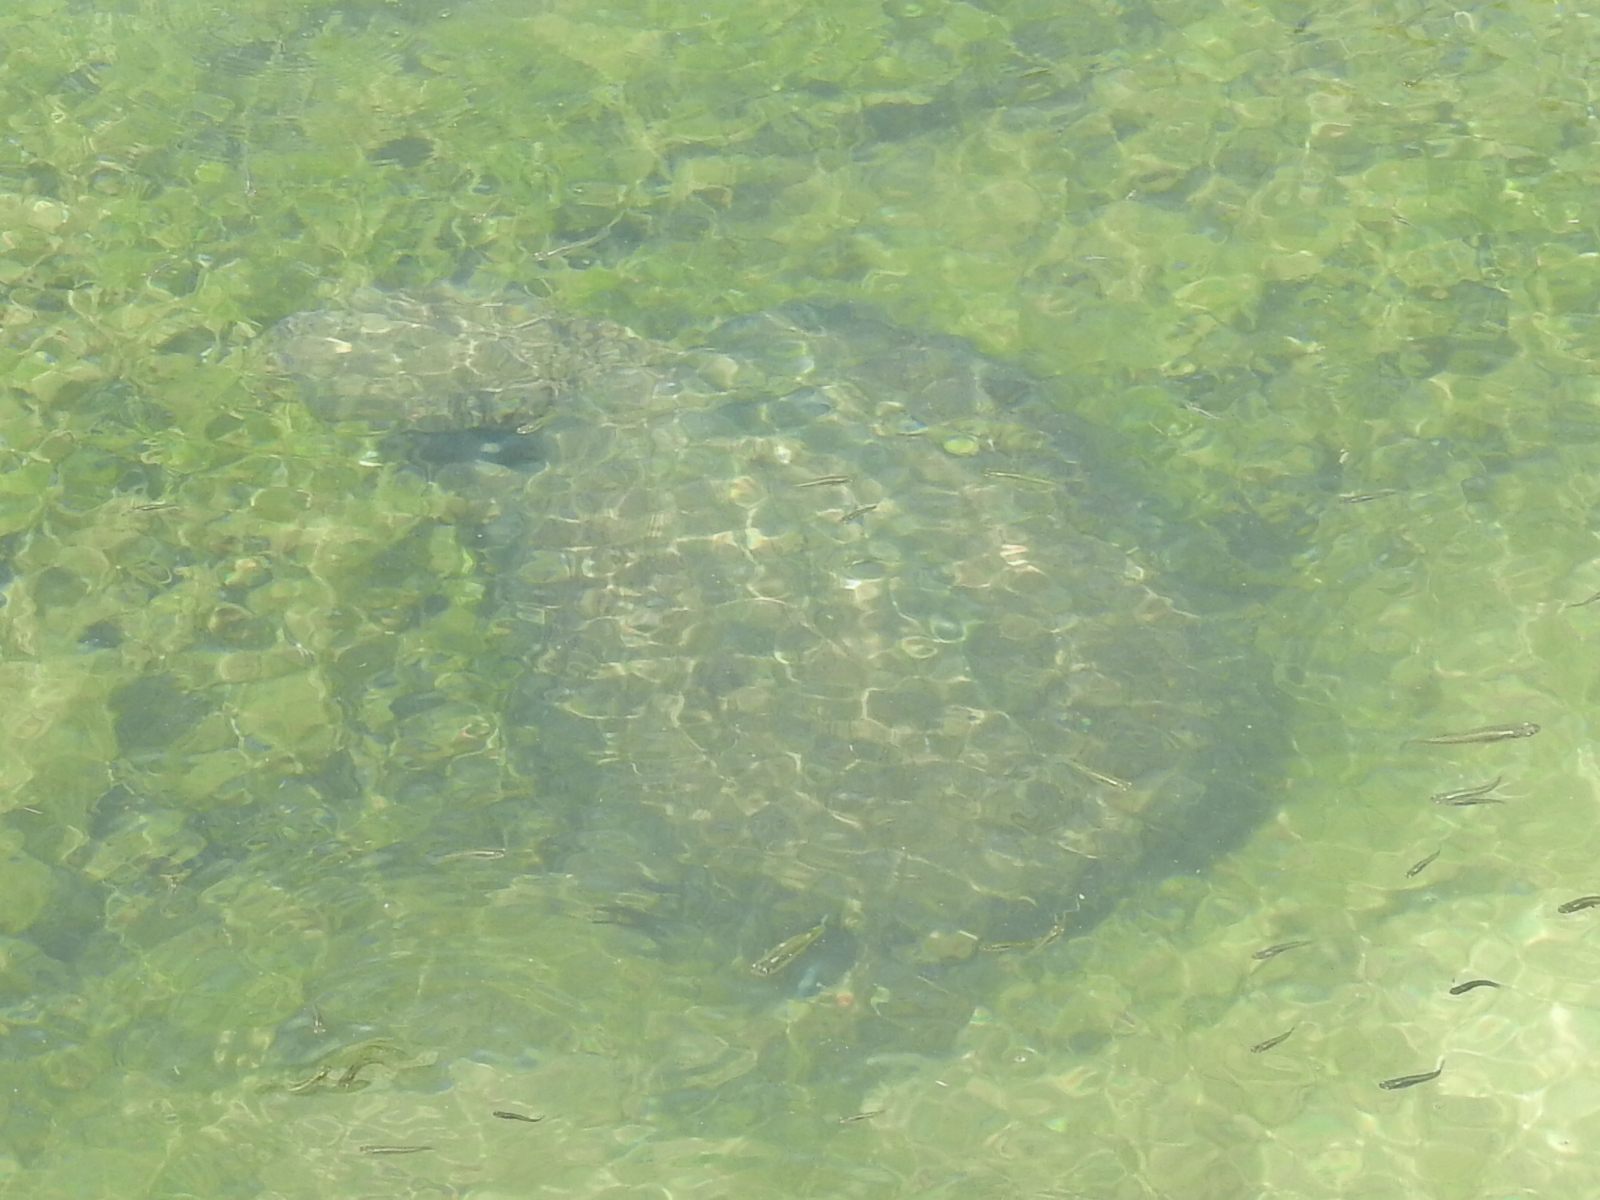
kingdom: Animalia
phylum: Chordata
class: Testudines
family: Chelydridae
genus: Chelydra
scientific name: Chelydra serpentina
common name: Common snapping turtle
